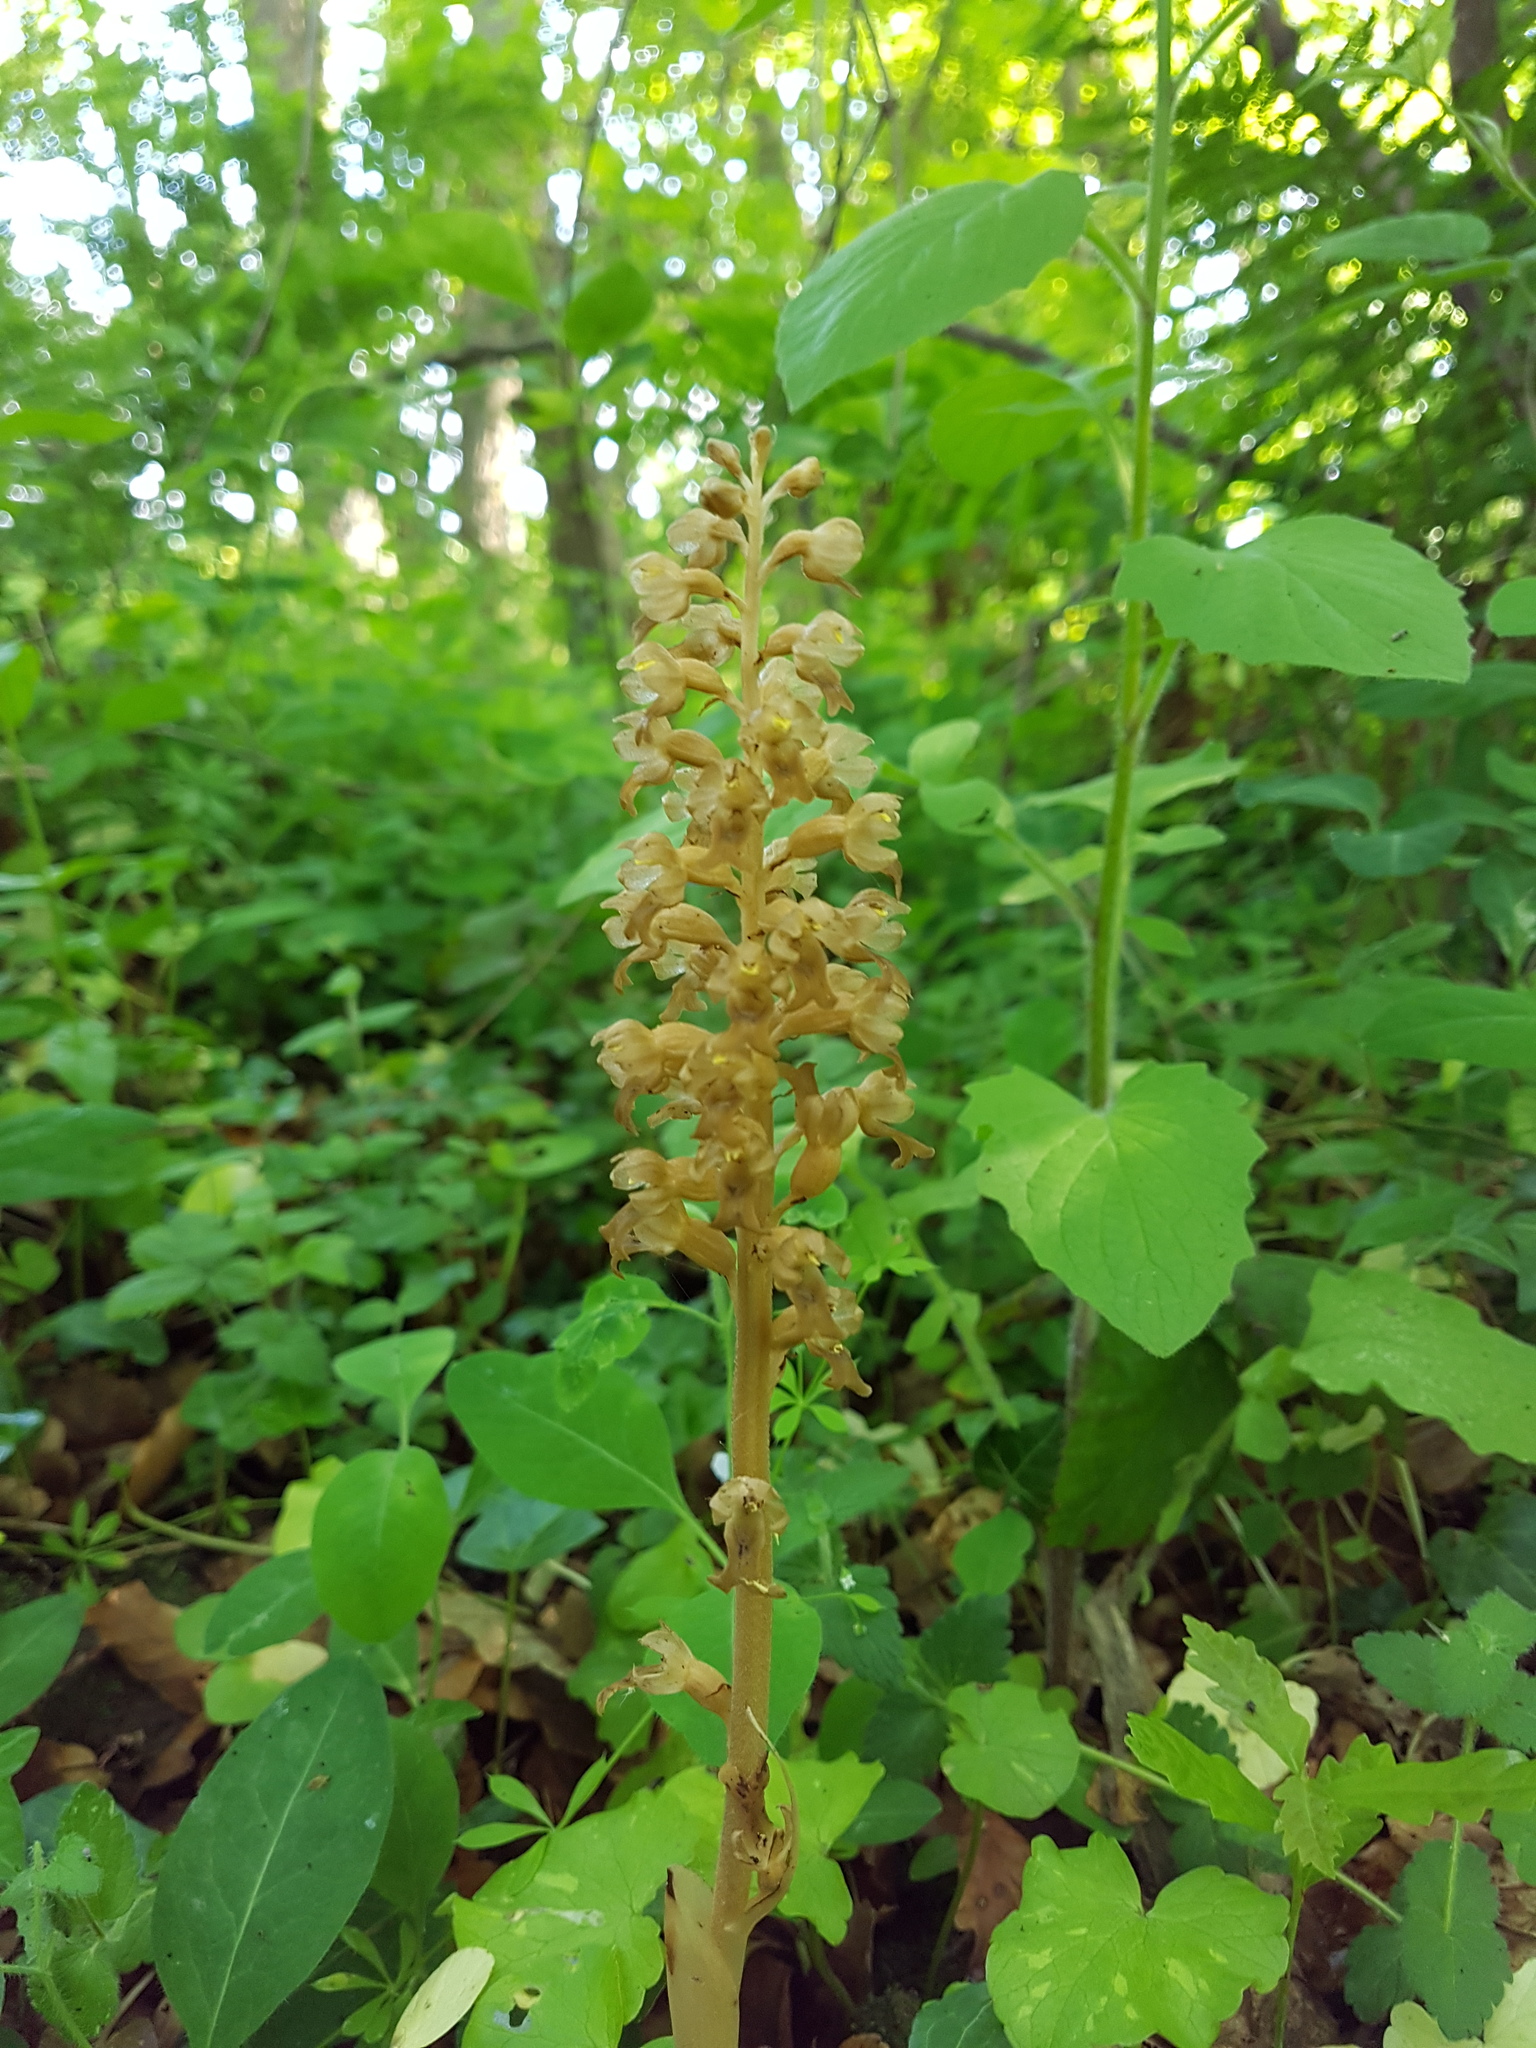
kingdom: Plantae
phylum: Tracheophyta
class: Liliopsida
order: Asparagales
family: Orchidaceae
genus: Neottia
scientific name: Neottia nidus-avis
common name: Bird's-nest orchid
